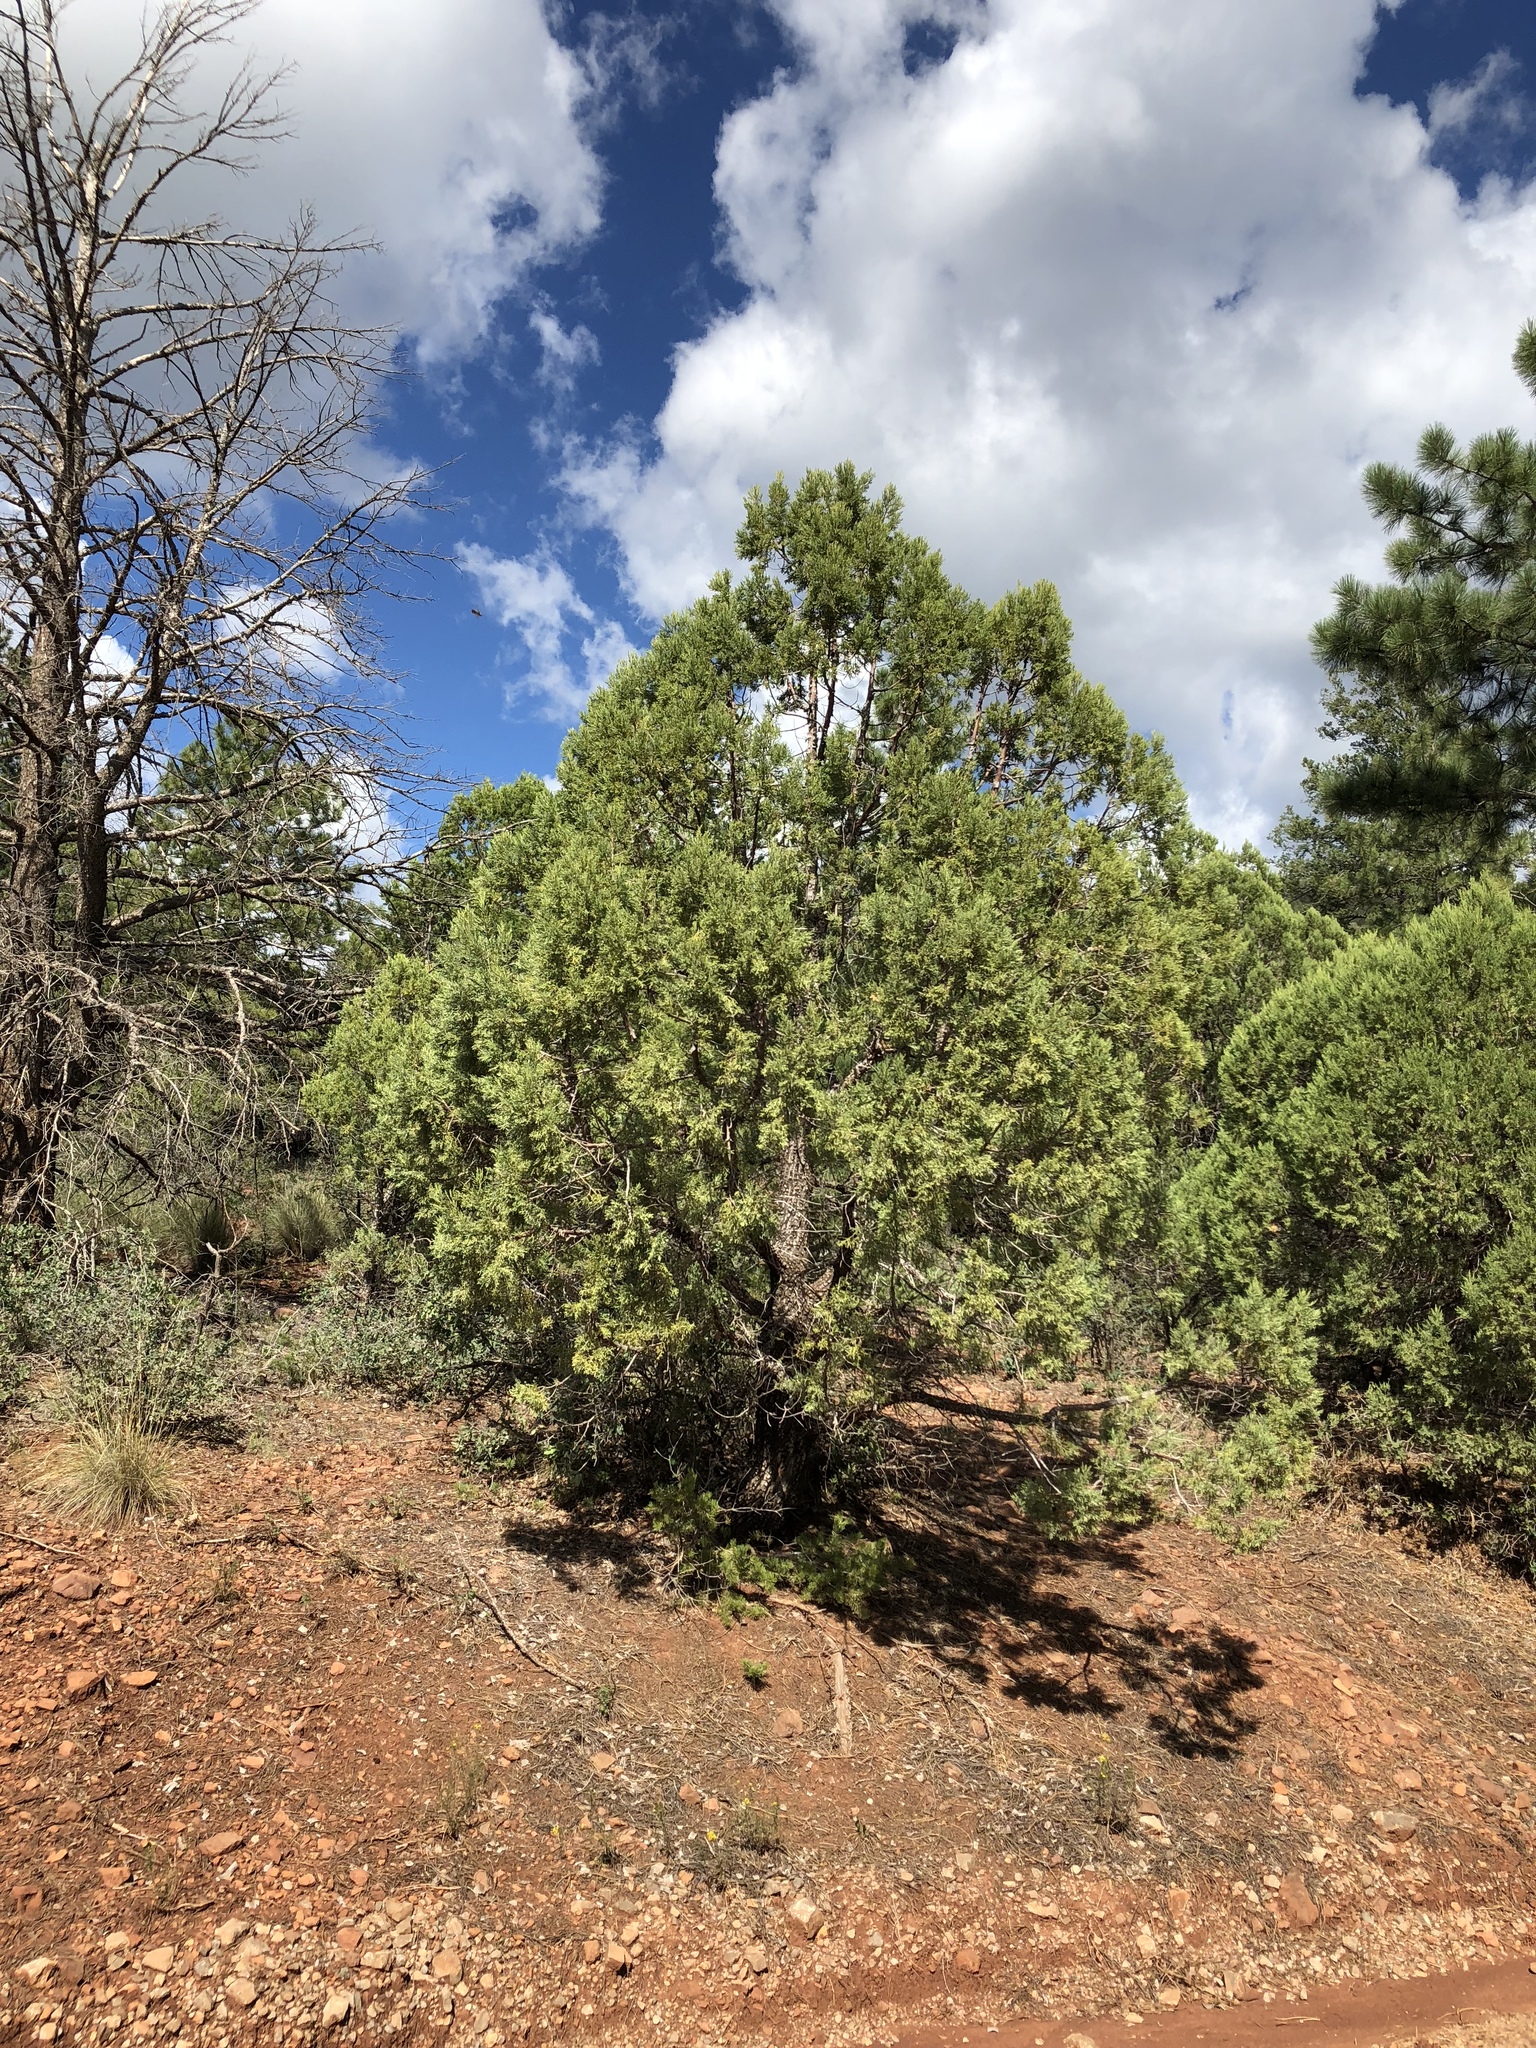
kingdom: Plantae
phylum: Tracheophyta
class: Pinopsida
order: Pinales
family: Cupressaceae
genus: Juniperus
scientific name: Juniperus deppeana
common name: Alligator juniper
